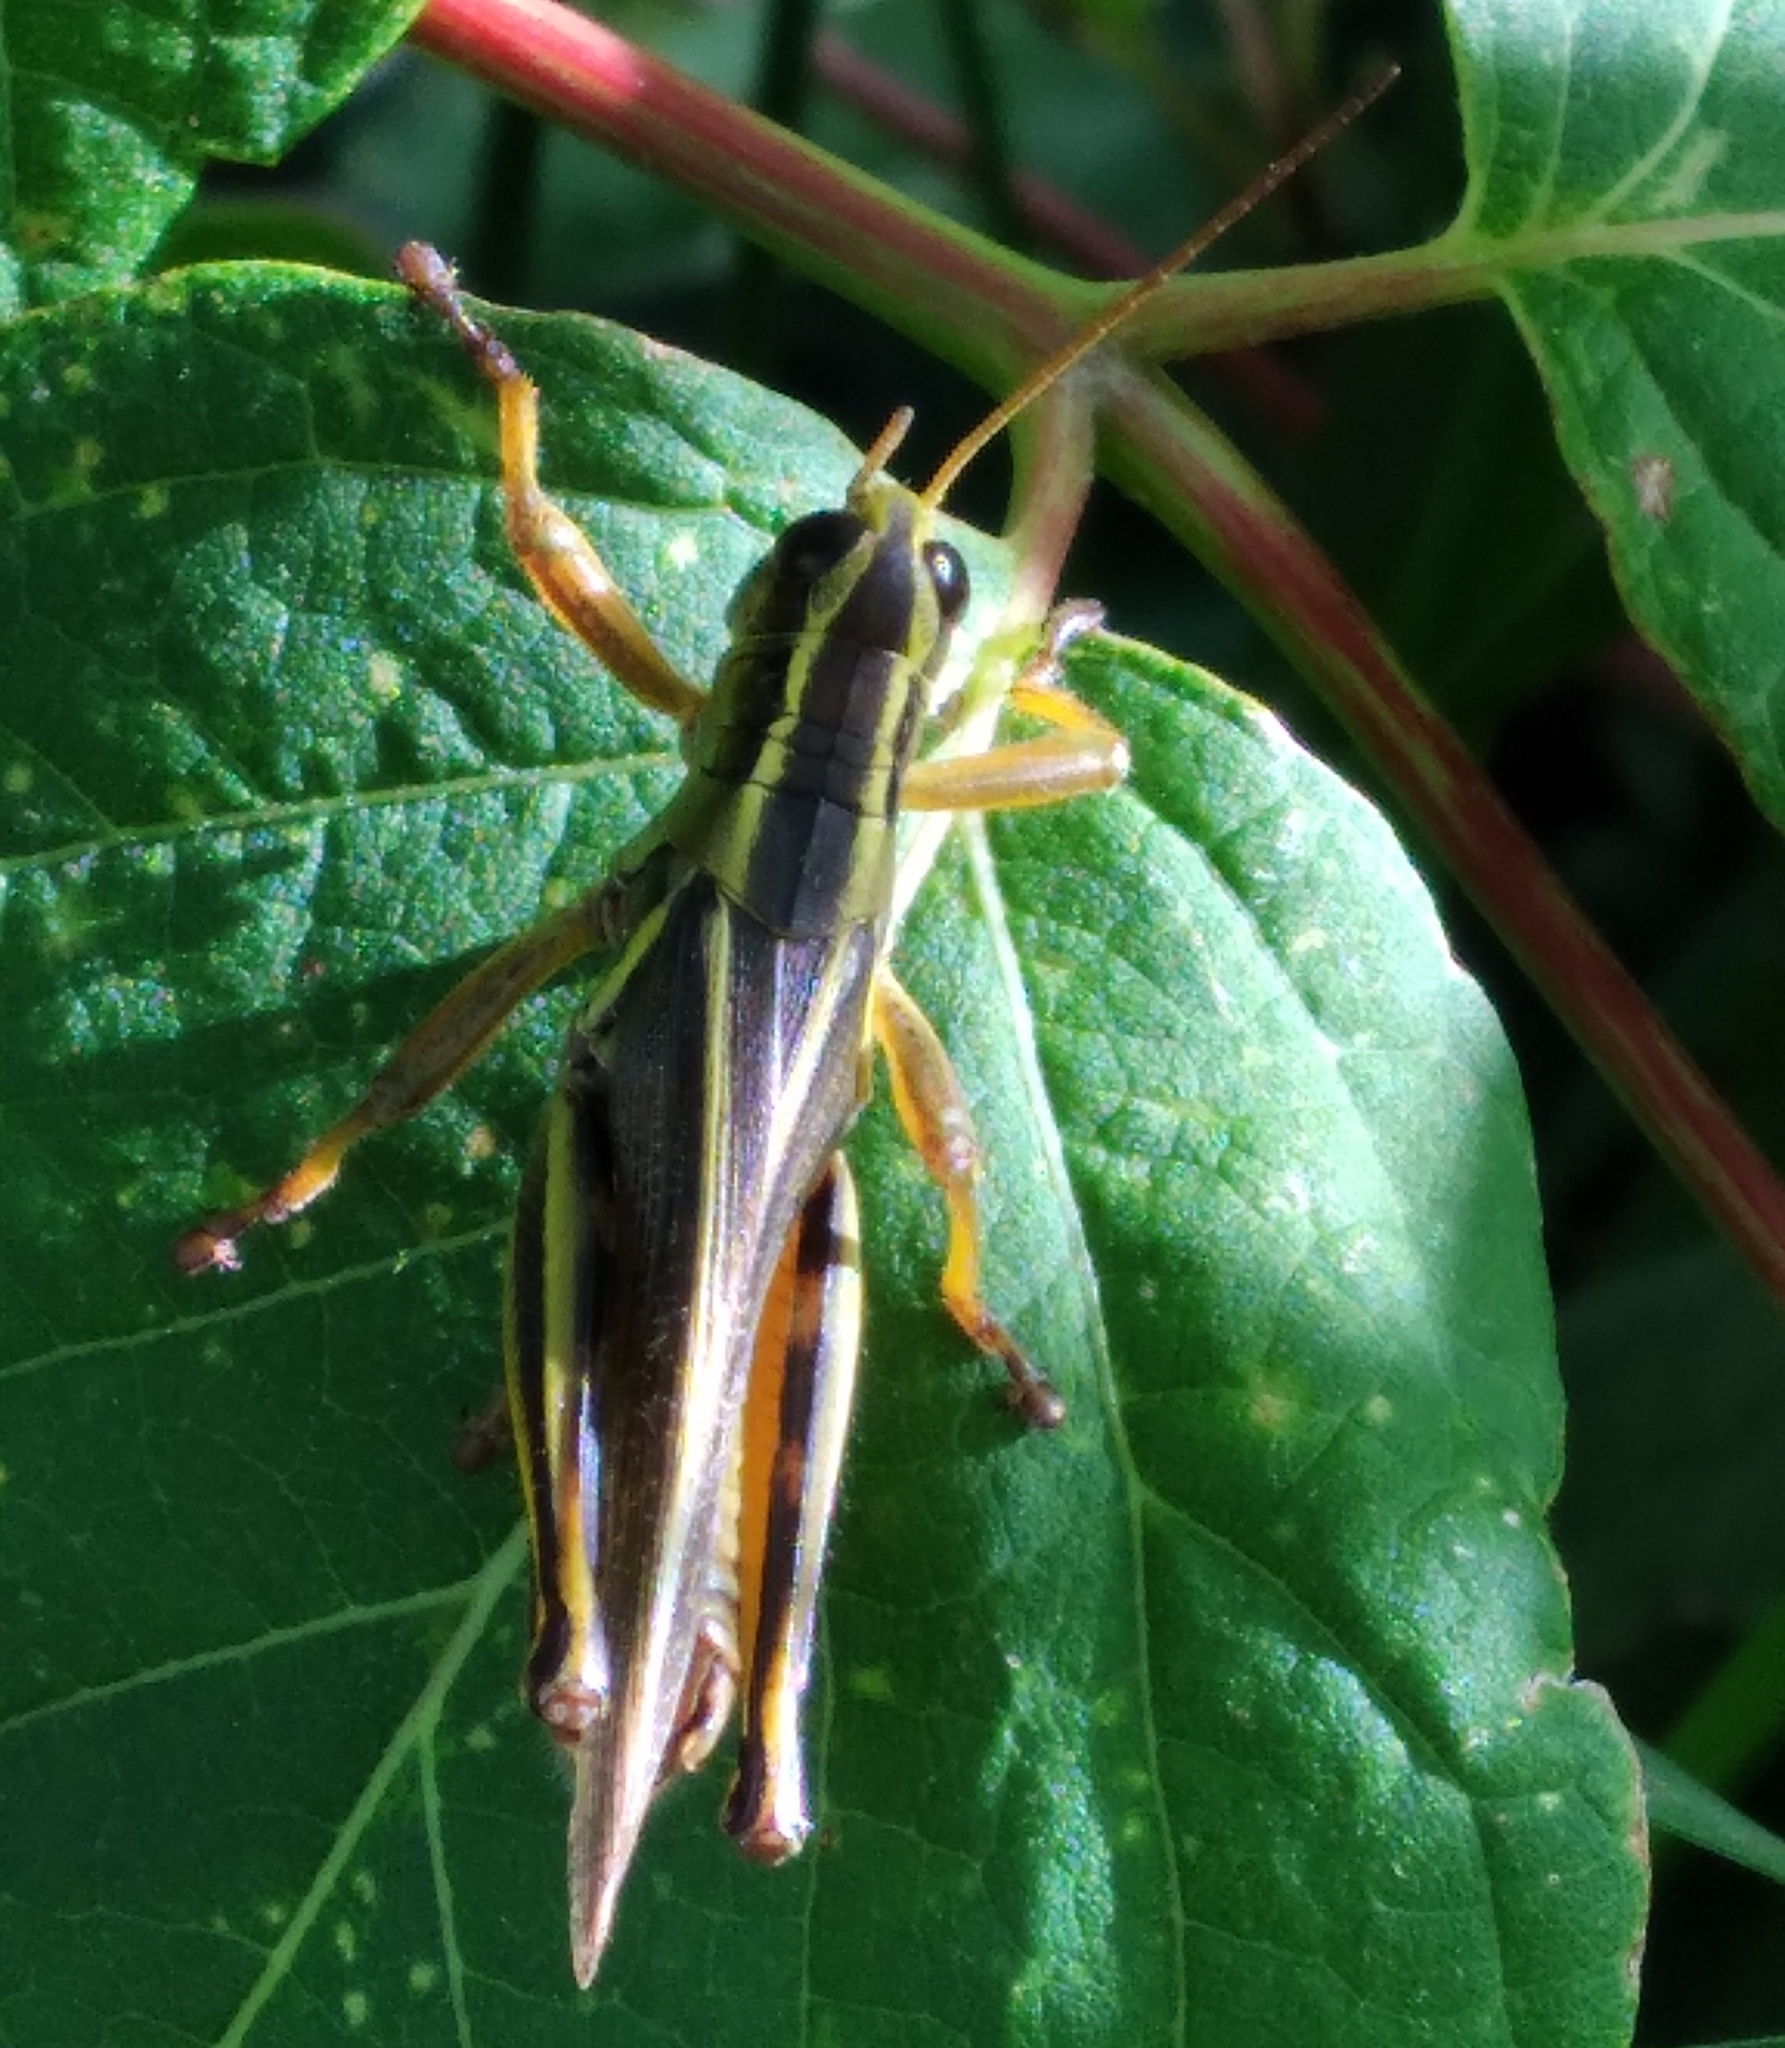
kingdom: Animalia
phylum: Arthropoda
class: Insecta
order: Orthoptera
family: Acrididae
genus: Melanoplus
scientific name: Melanoplus bivittatus
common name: Two-striped grasshopper
